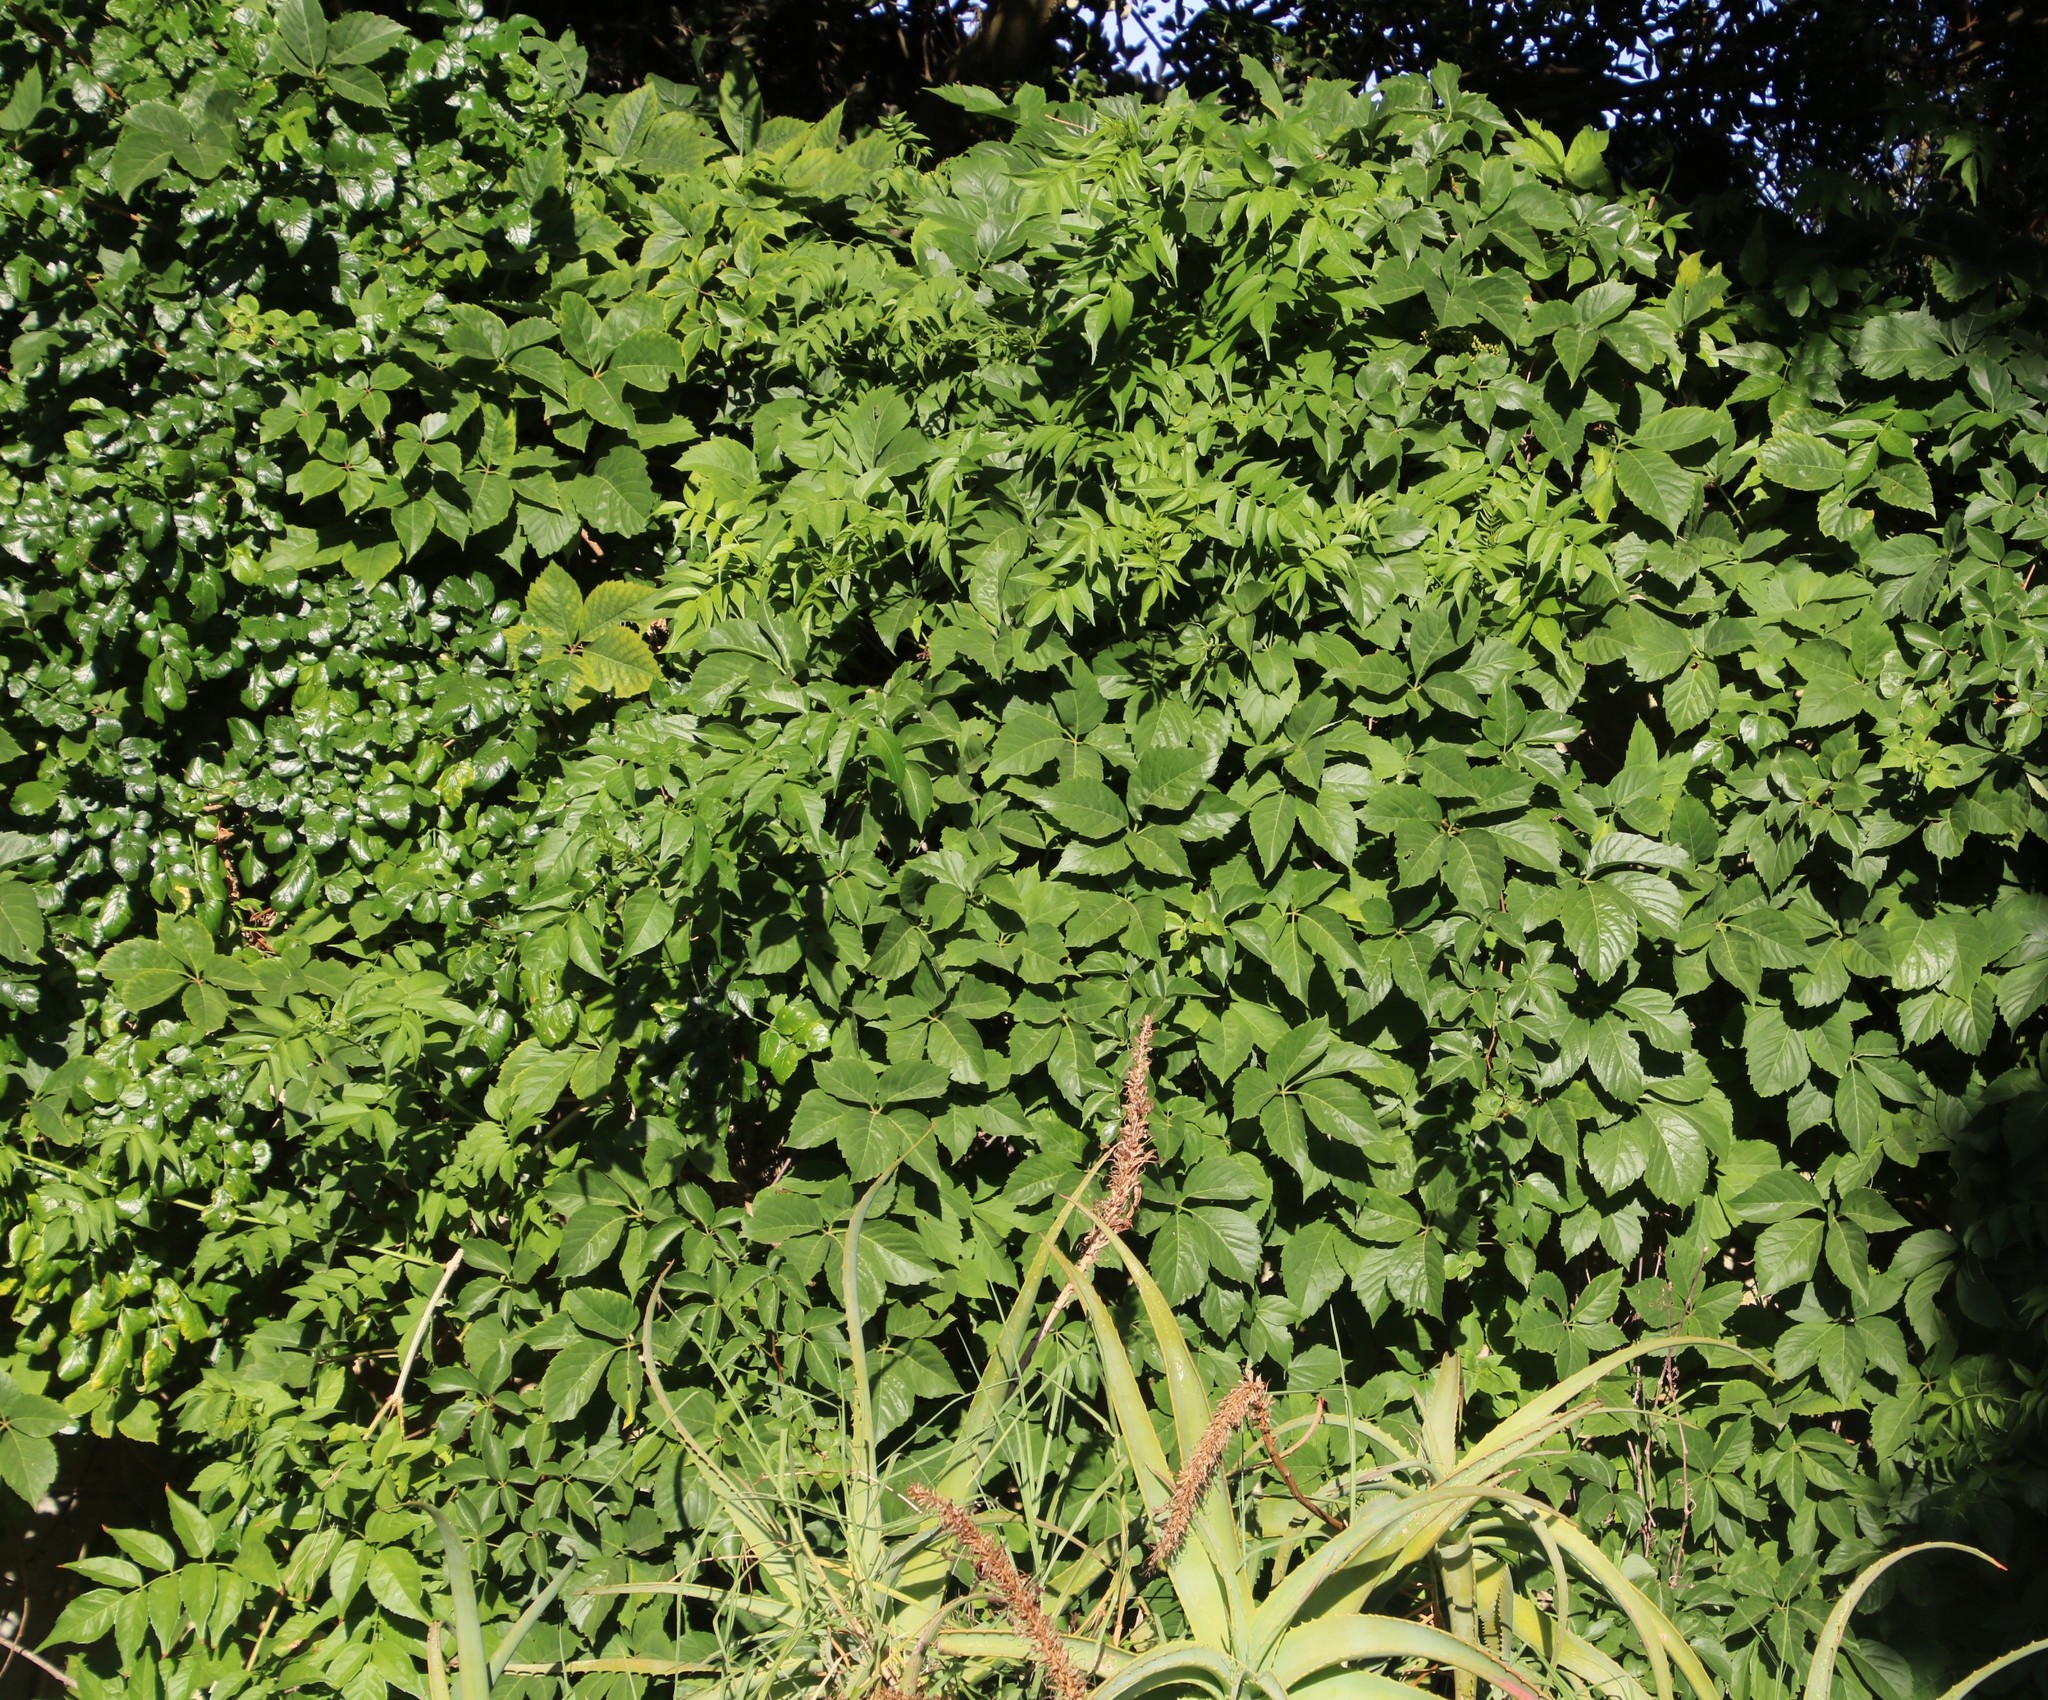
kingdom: Plantae
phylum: Tracheophyta
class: Magnoliopsida
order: Vitales
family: Vitaceae
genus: Parthenocissus
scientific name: Parthenocissus quinquefolia
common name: Virginia-creeper
